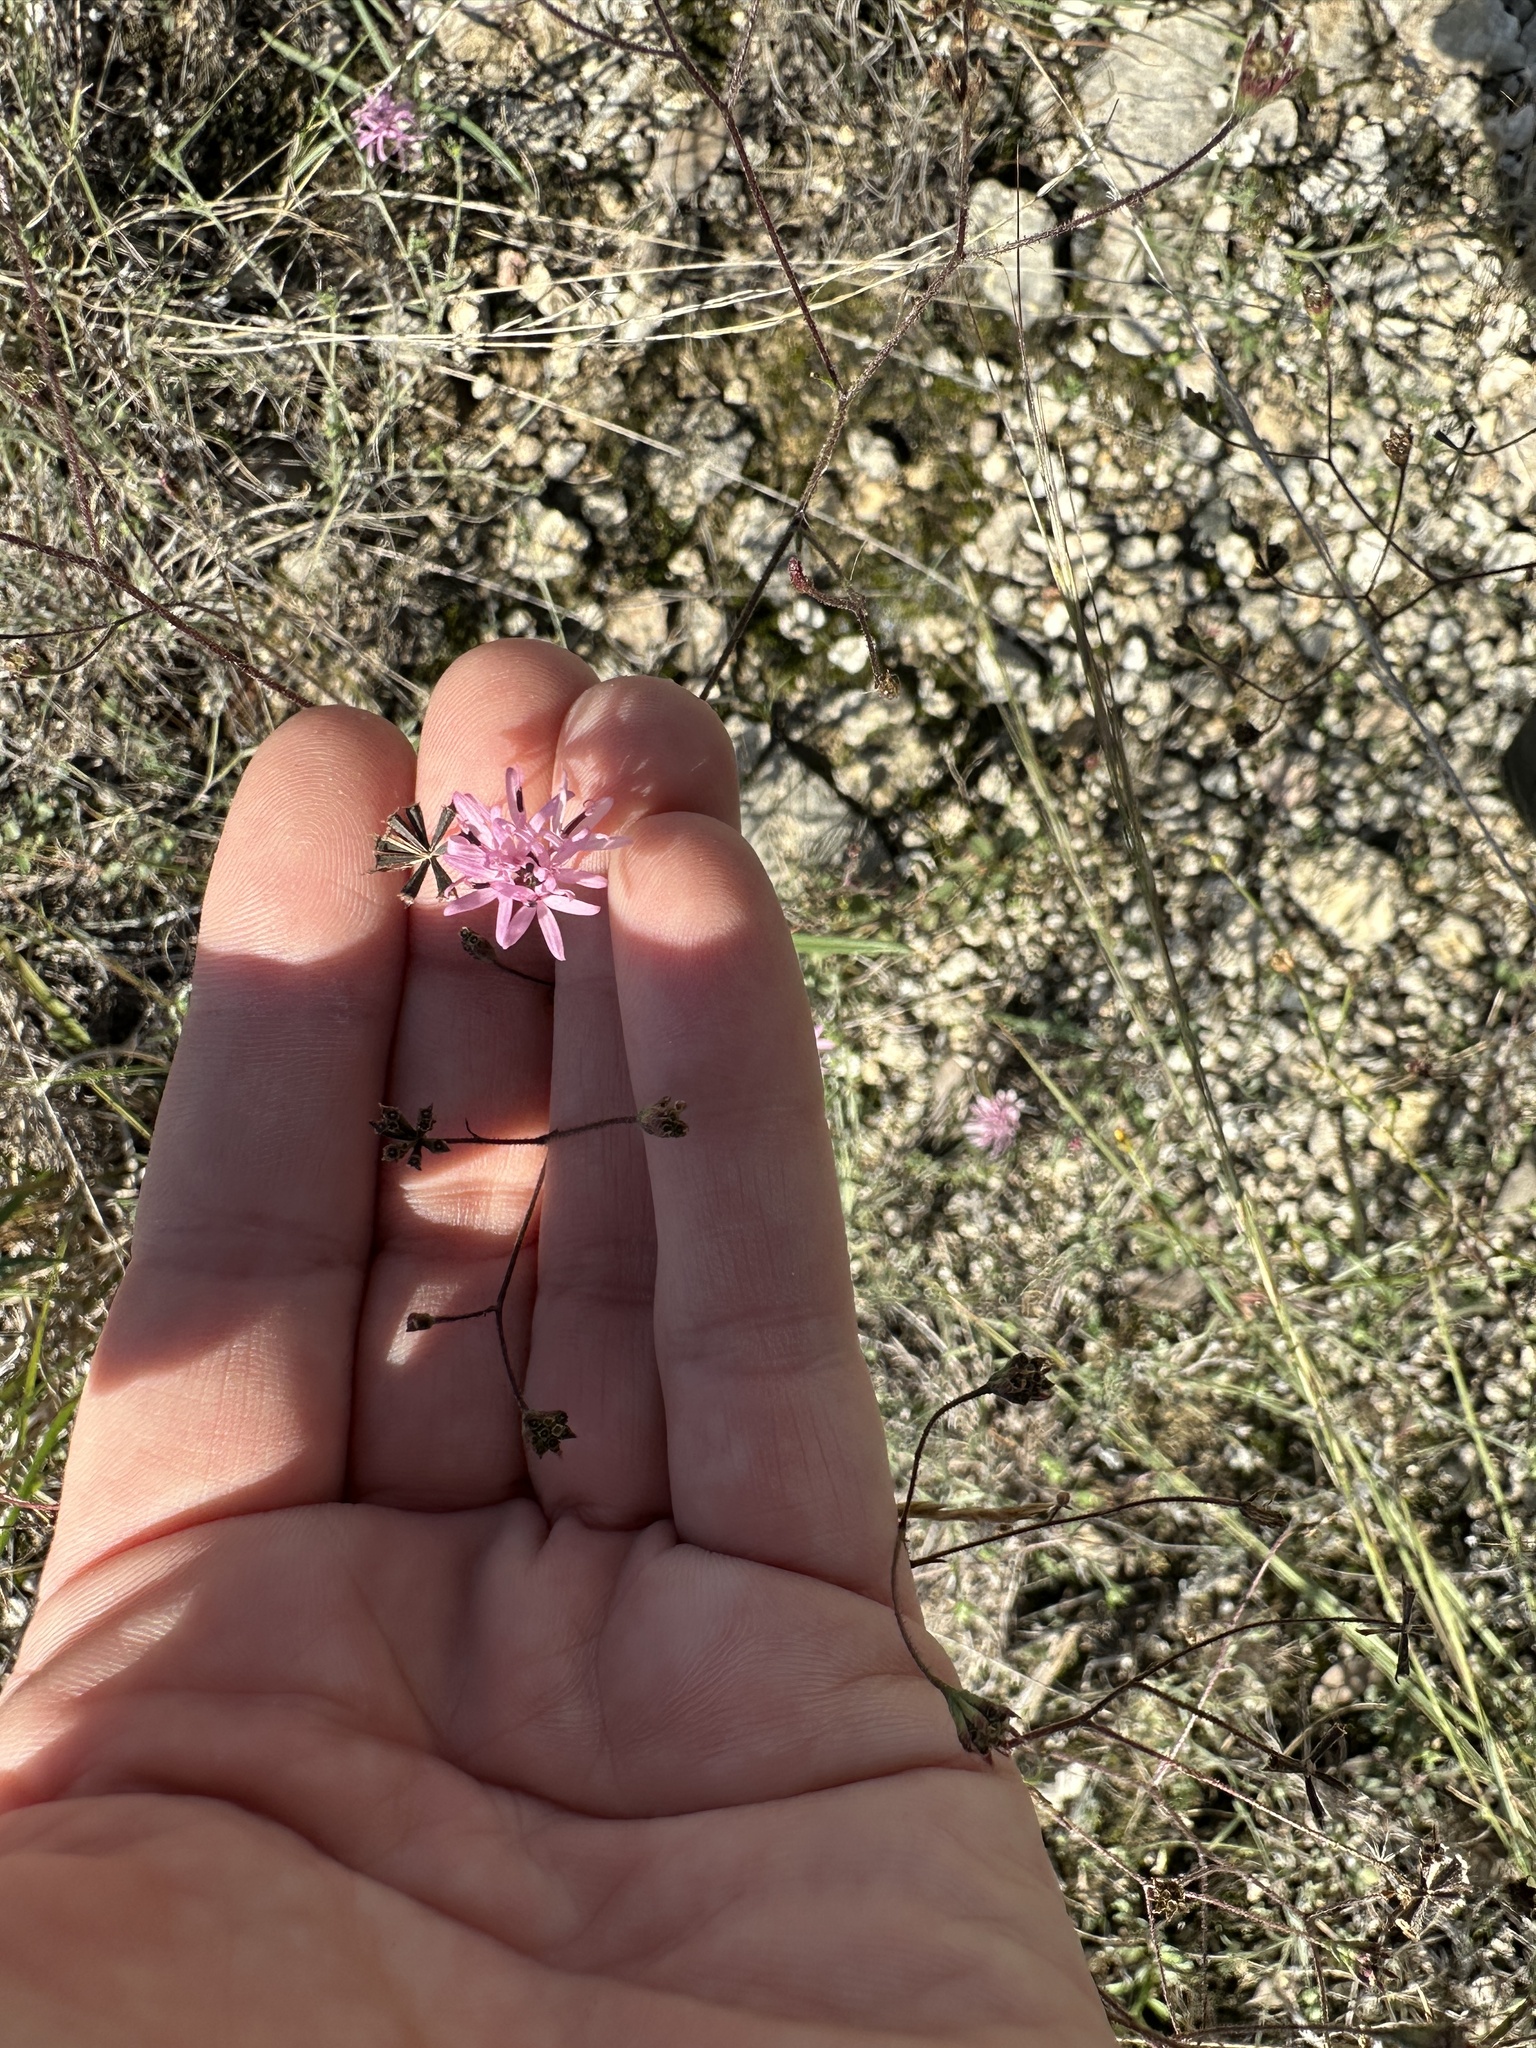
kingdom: Plantae
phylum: Tracheophyta
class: Magnoliopsida
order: Asterales
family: Asteraceae
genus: Palafoxia
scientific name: Palafoxia callosa
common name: Small palafox
